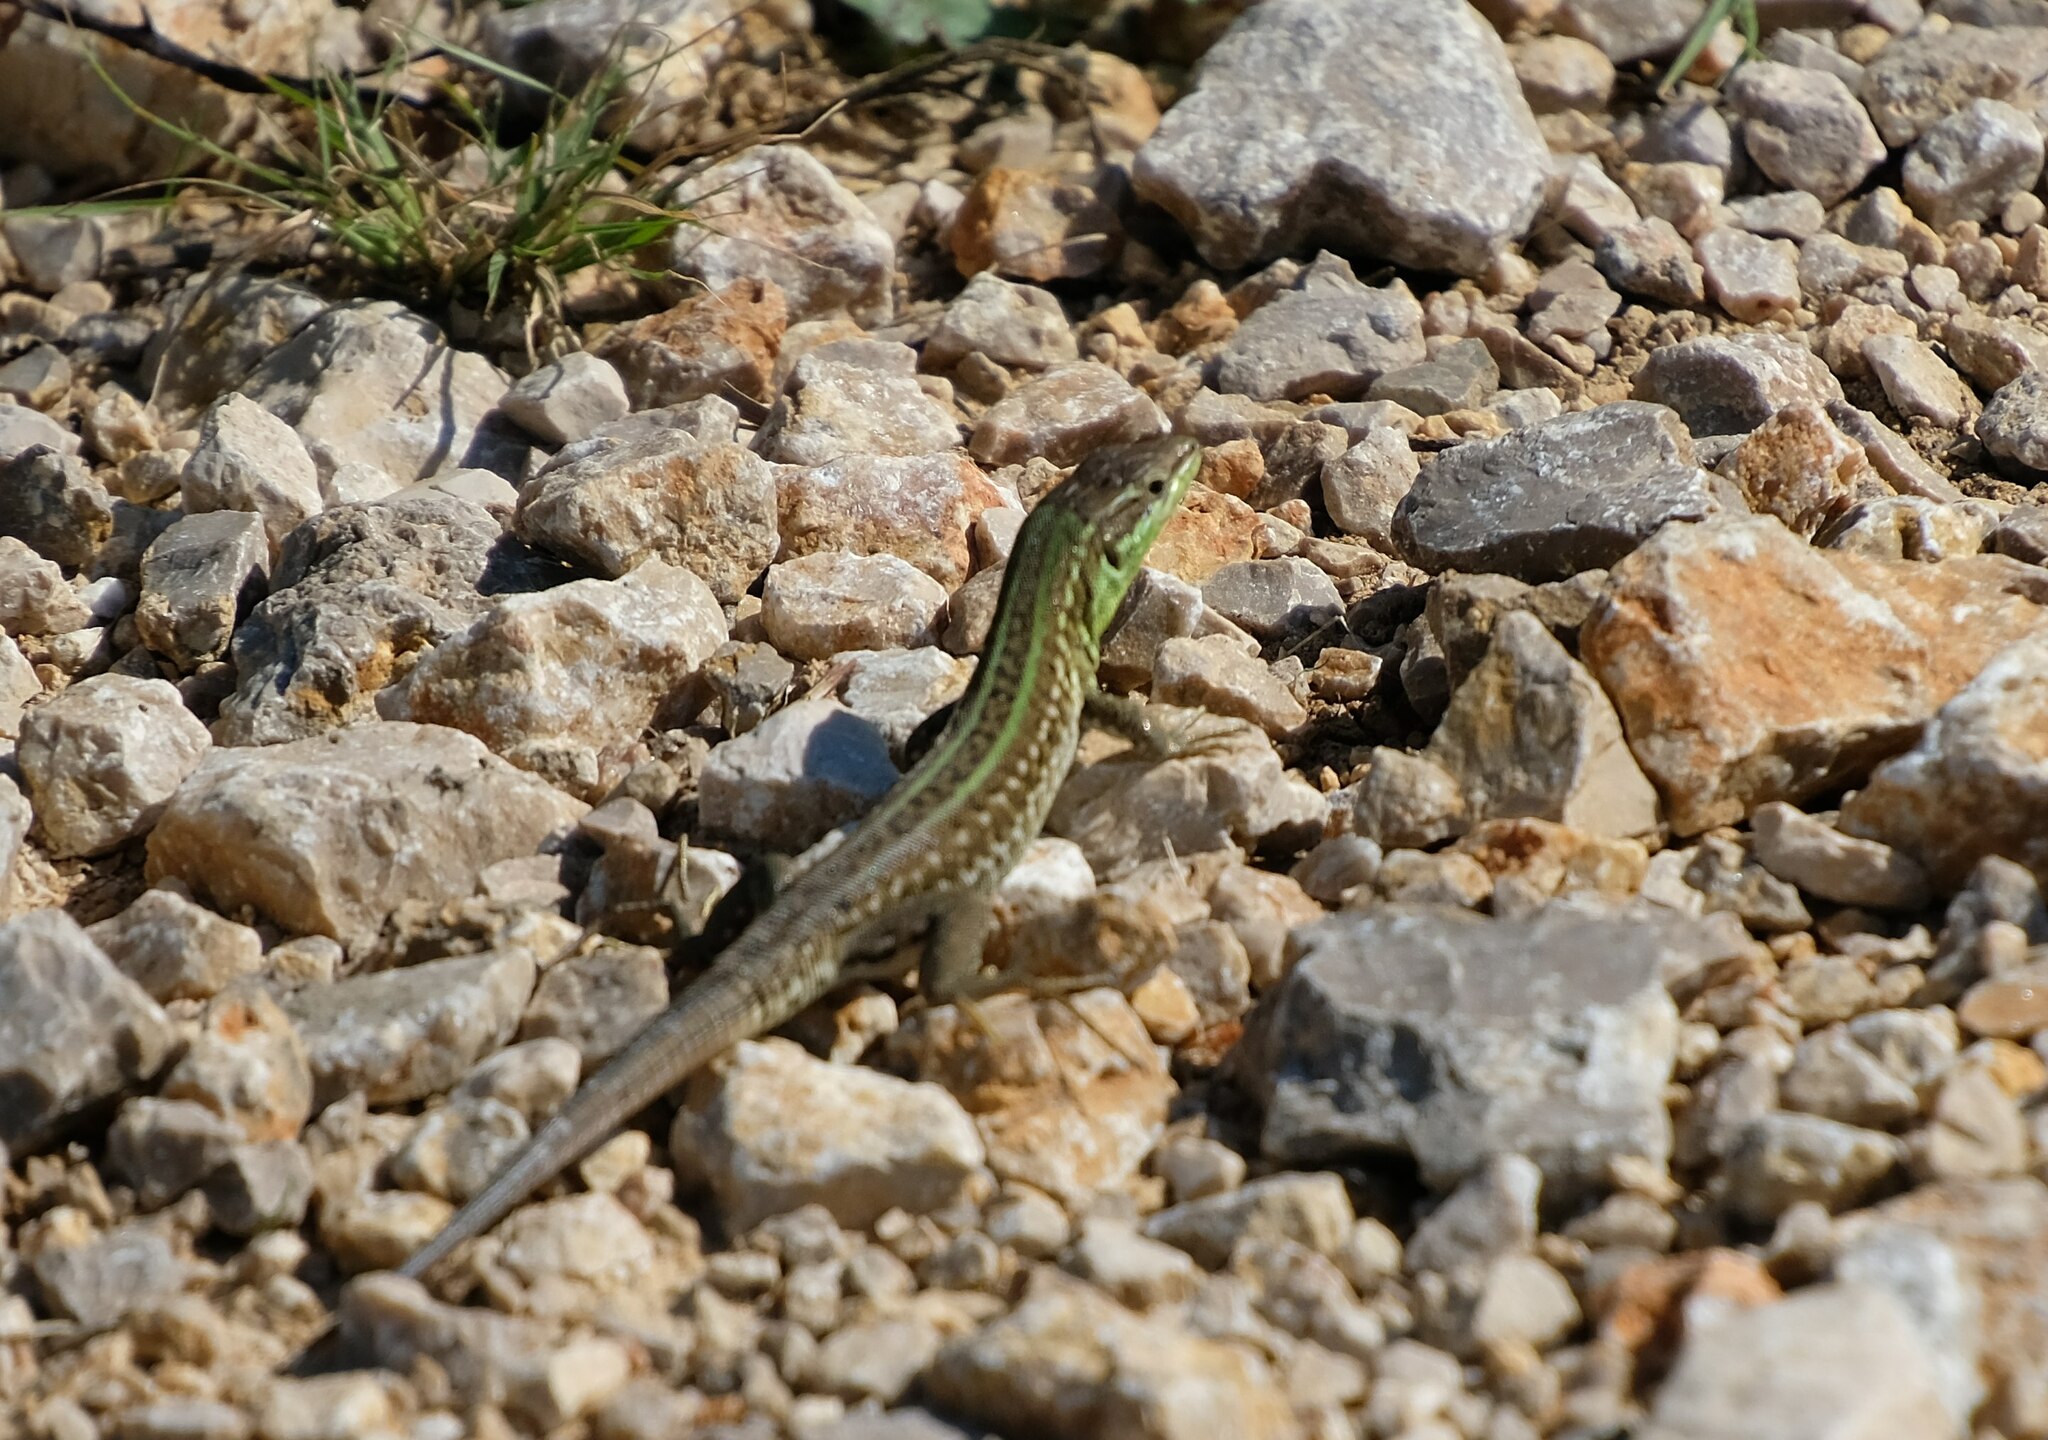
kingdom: Animalia
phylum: Chordata
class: Squamata
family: Lacertidae
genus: Podarcis
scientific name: Podarcis siculus
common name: Italian wall lizard
